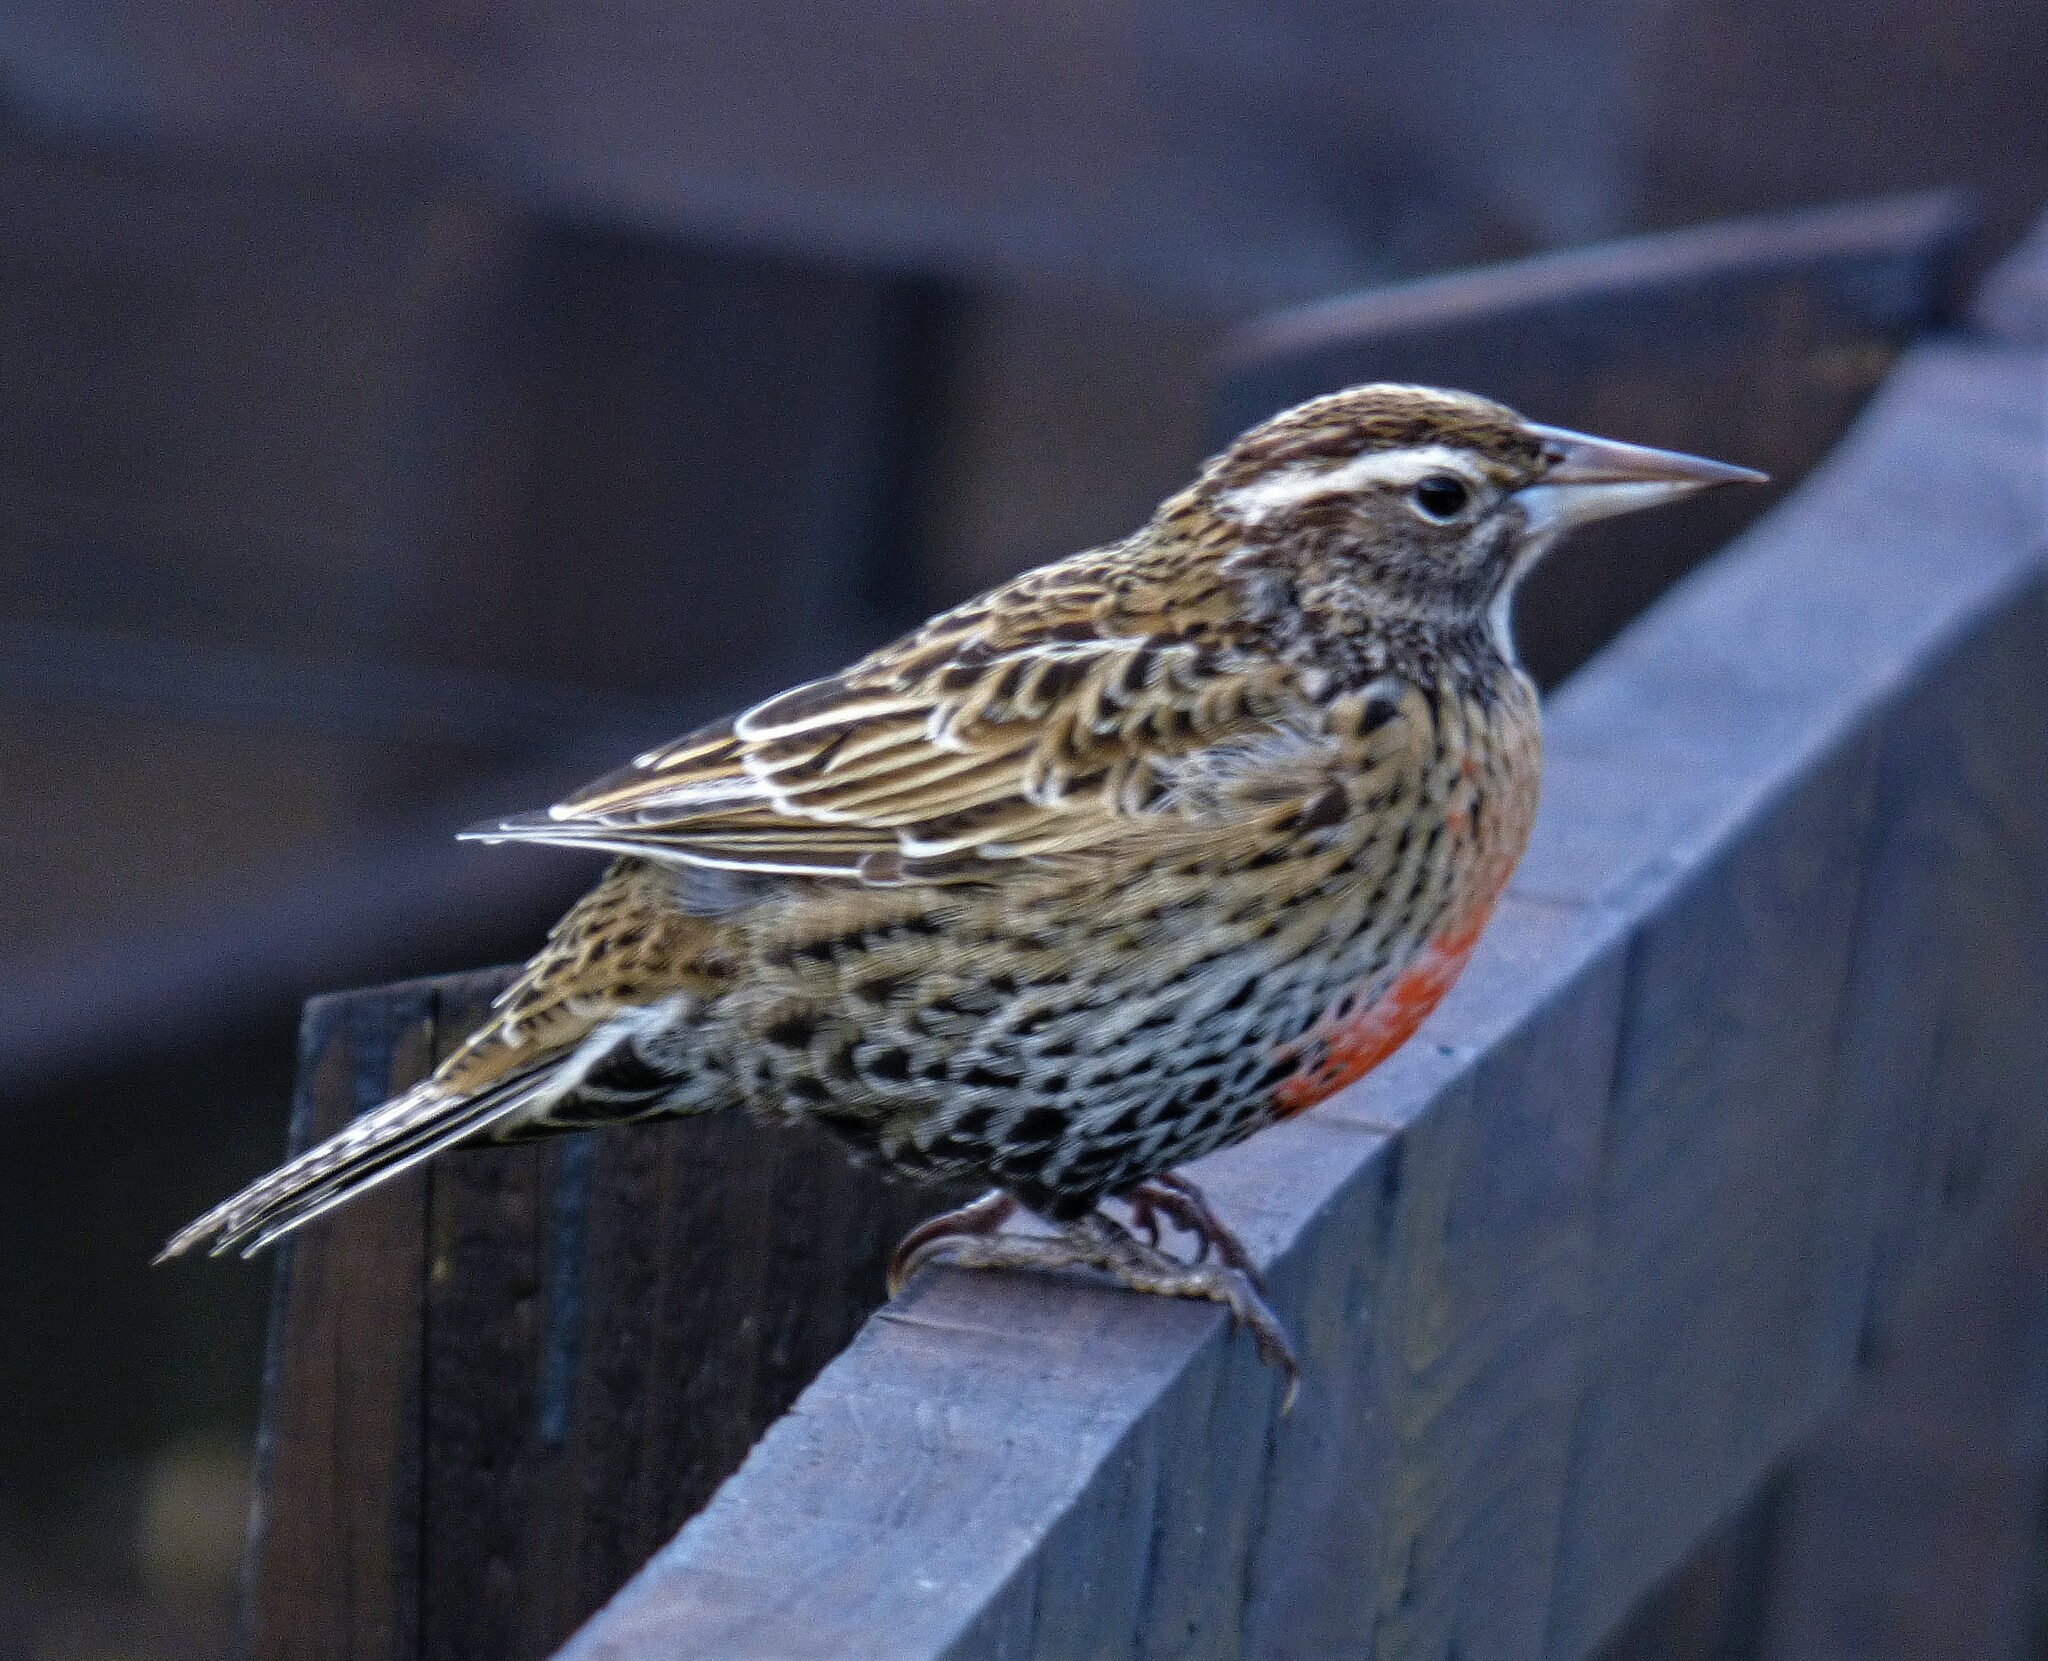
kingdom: Animalia
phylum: Chordata
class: Aves
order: Passeriformes
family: Icteridae
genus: Sturnella
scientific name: Sturnella loyca
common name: Long-tailed meadowlark
